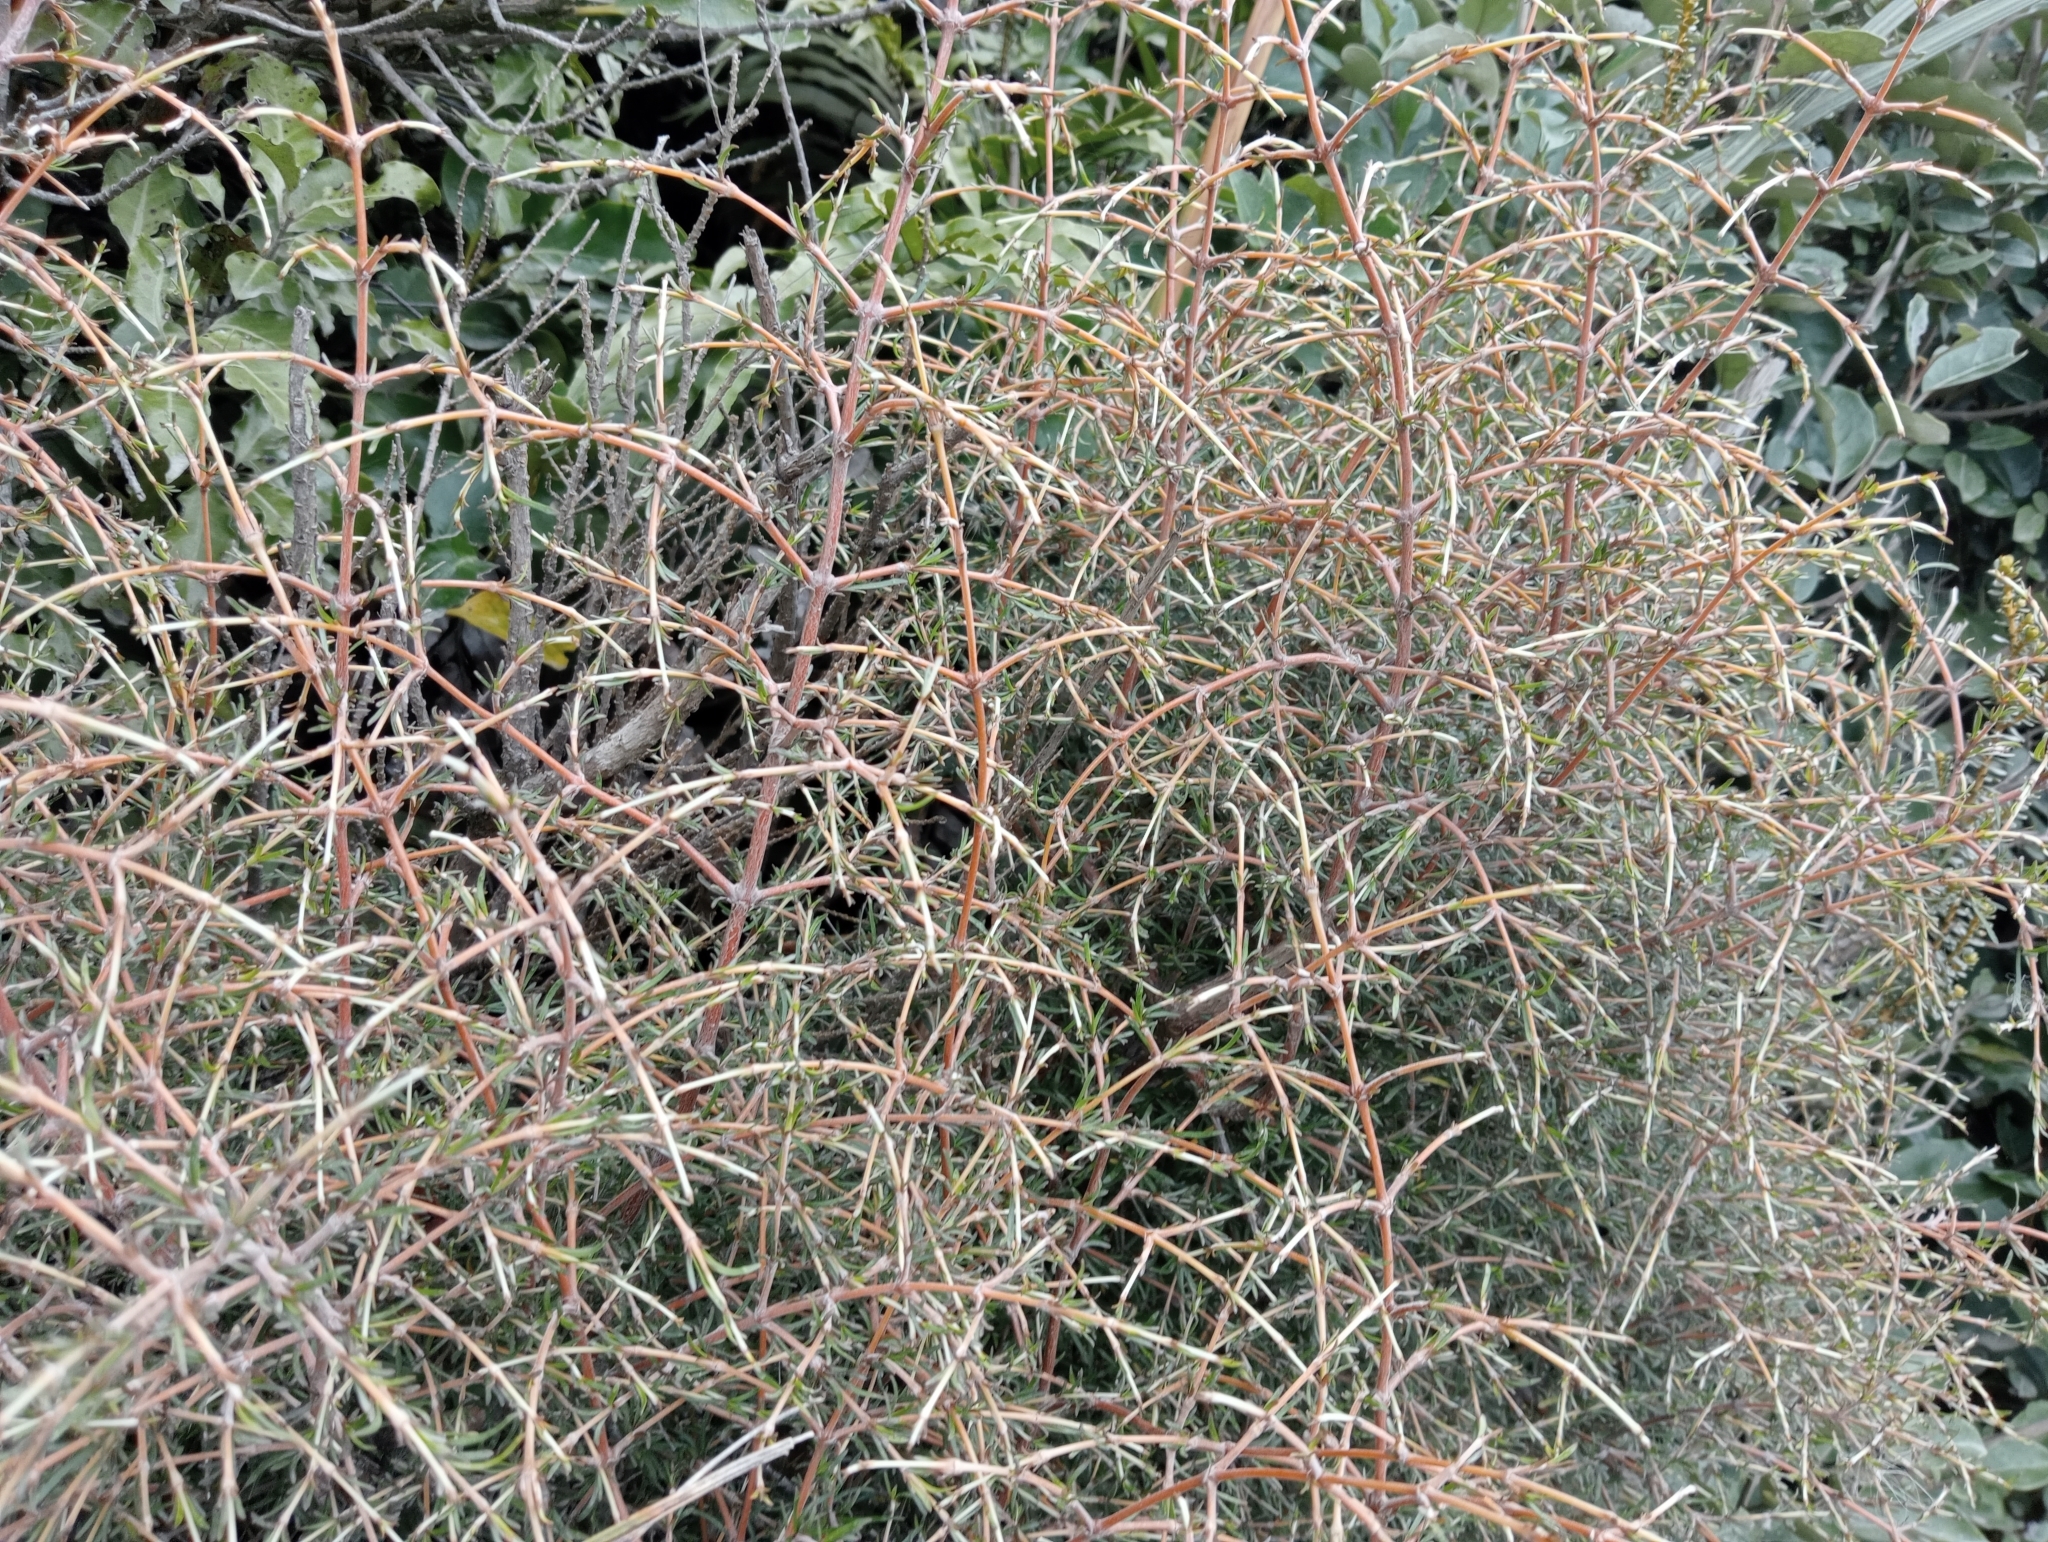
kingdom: Plantae
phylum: Tracheophyta
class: Magnoliopsida
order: Gentianales
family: Rubiaceae
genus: Coprosma
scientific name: Coprosma rugosa
